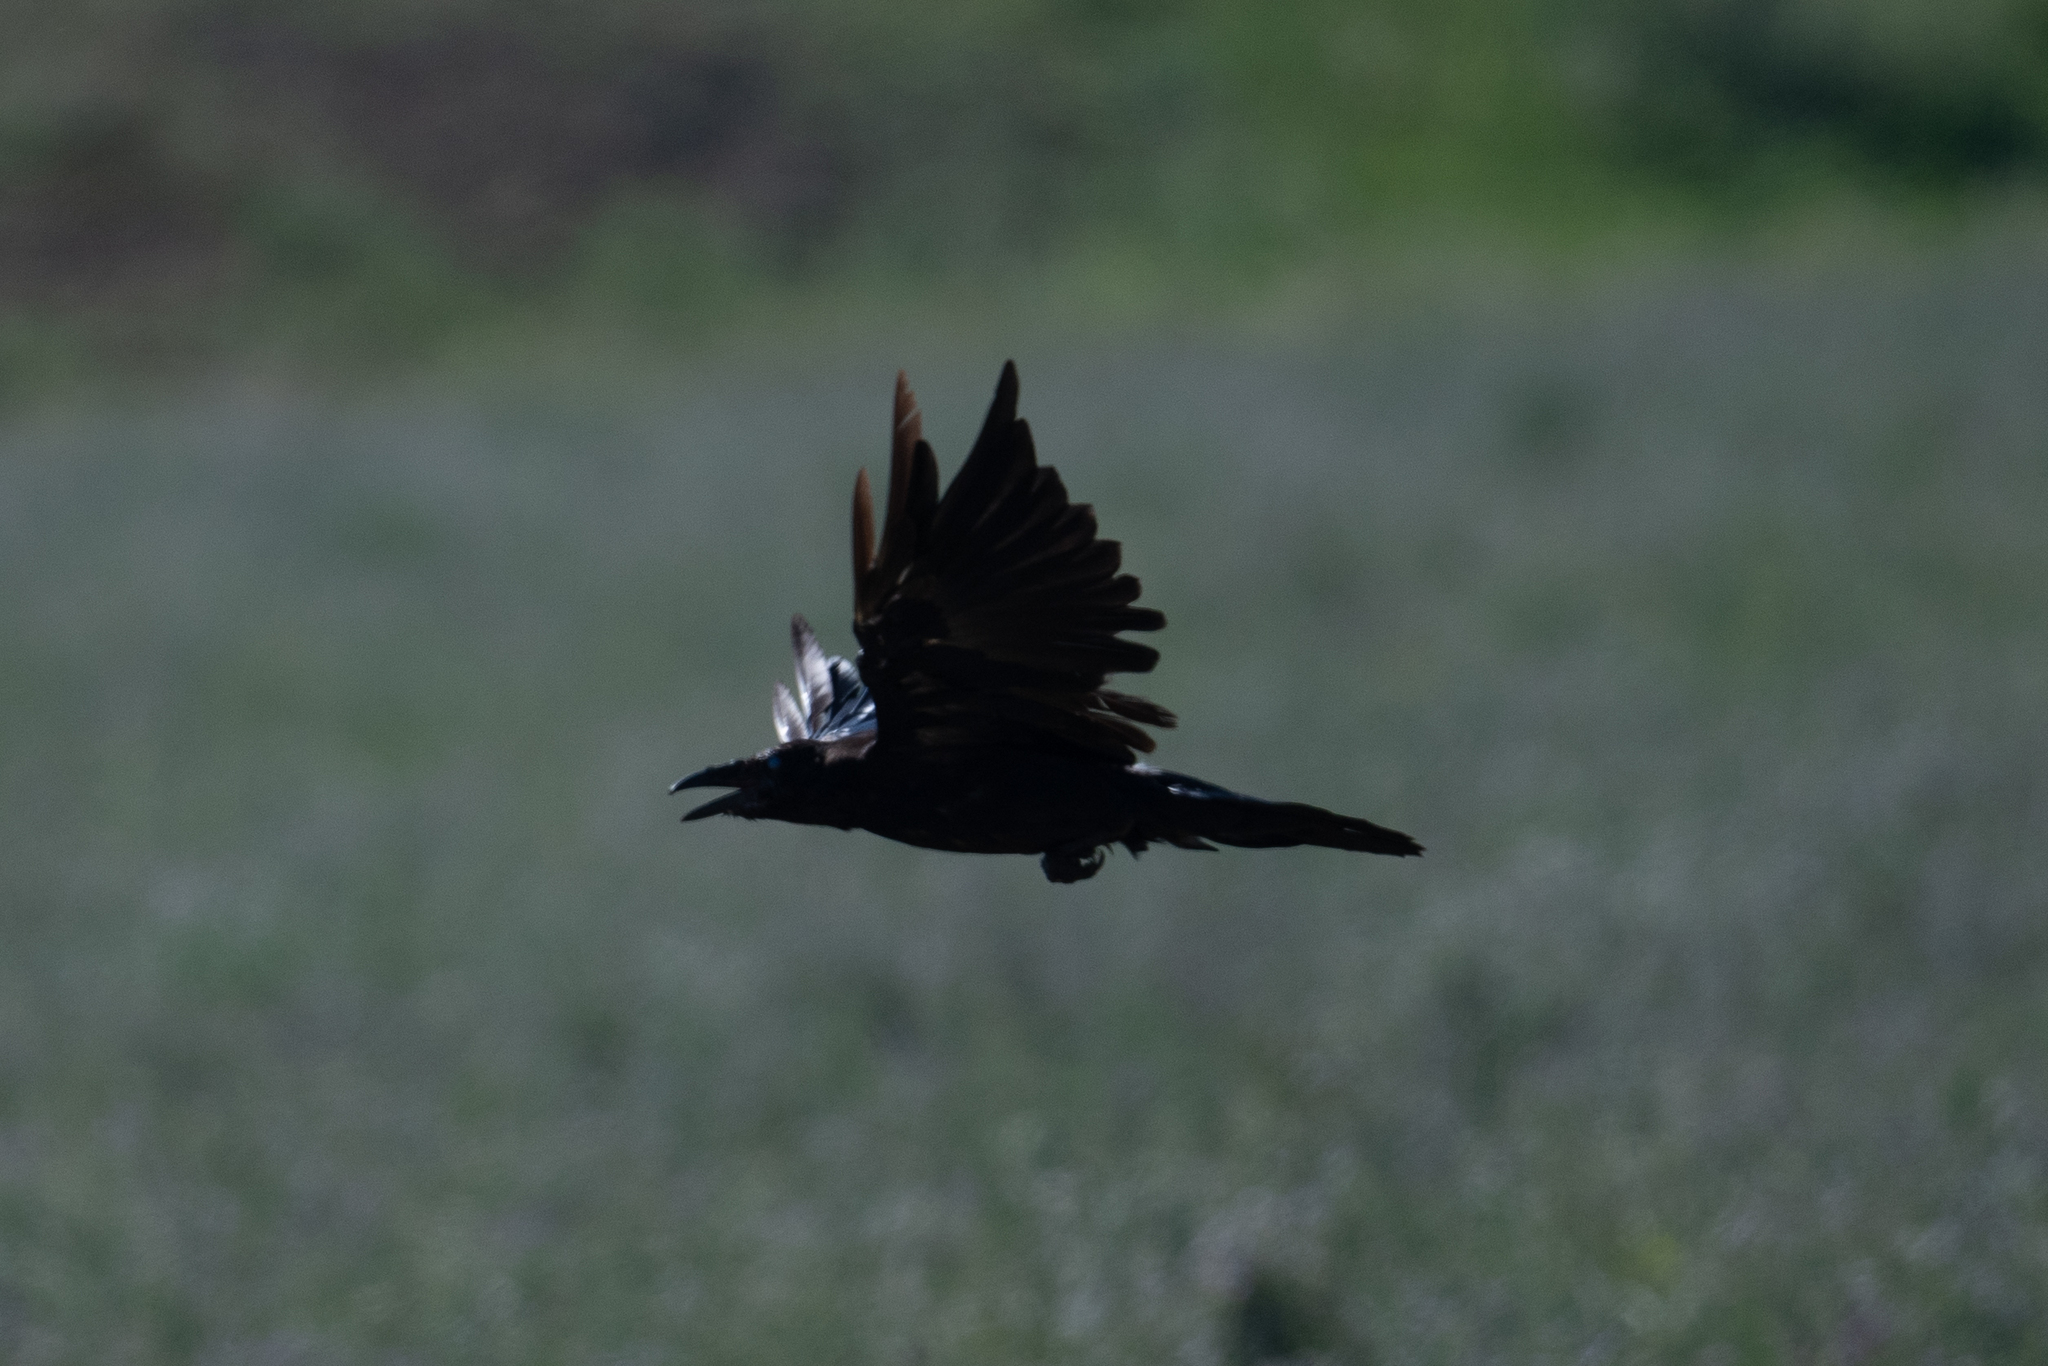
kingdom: Animalia
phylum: Chordata
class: Aves
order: Passeriformes
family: Corvidae
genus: Corvus
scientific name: Corvus corax
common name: Common raven
